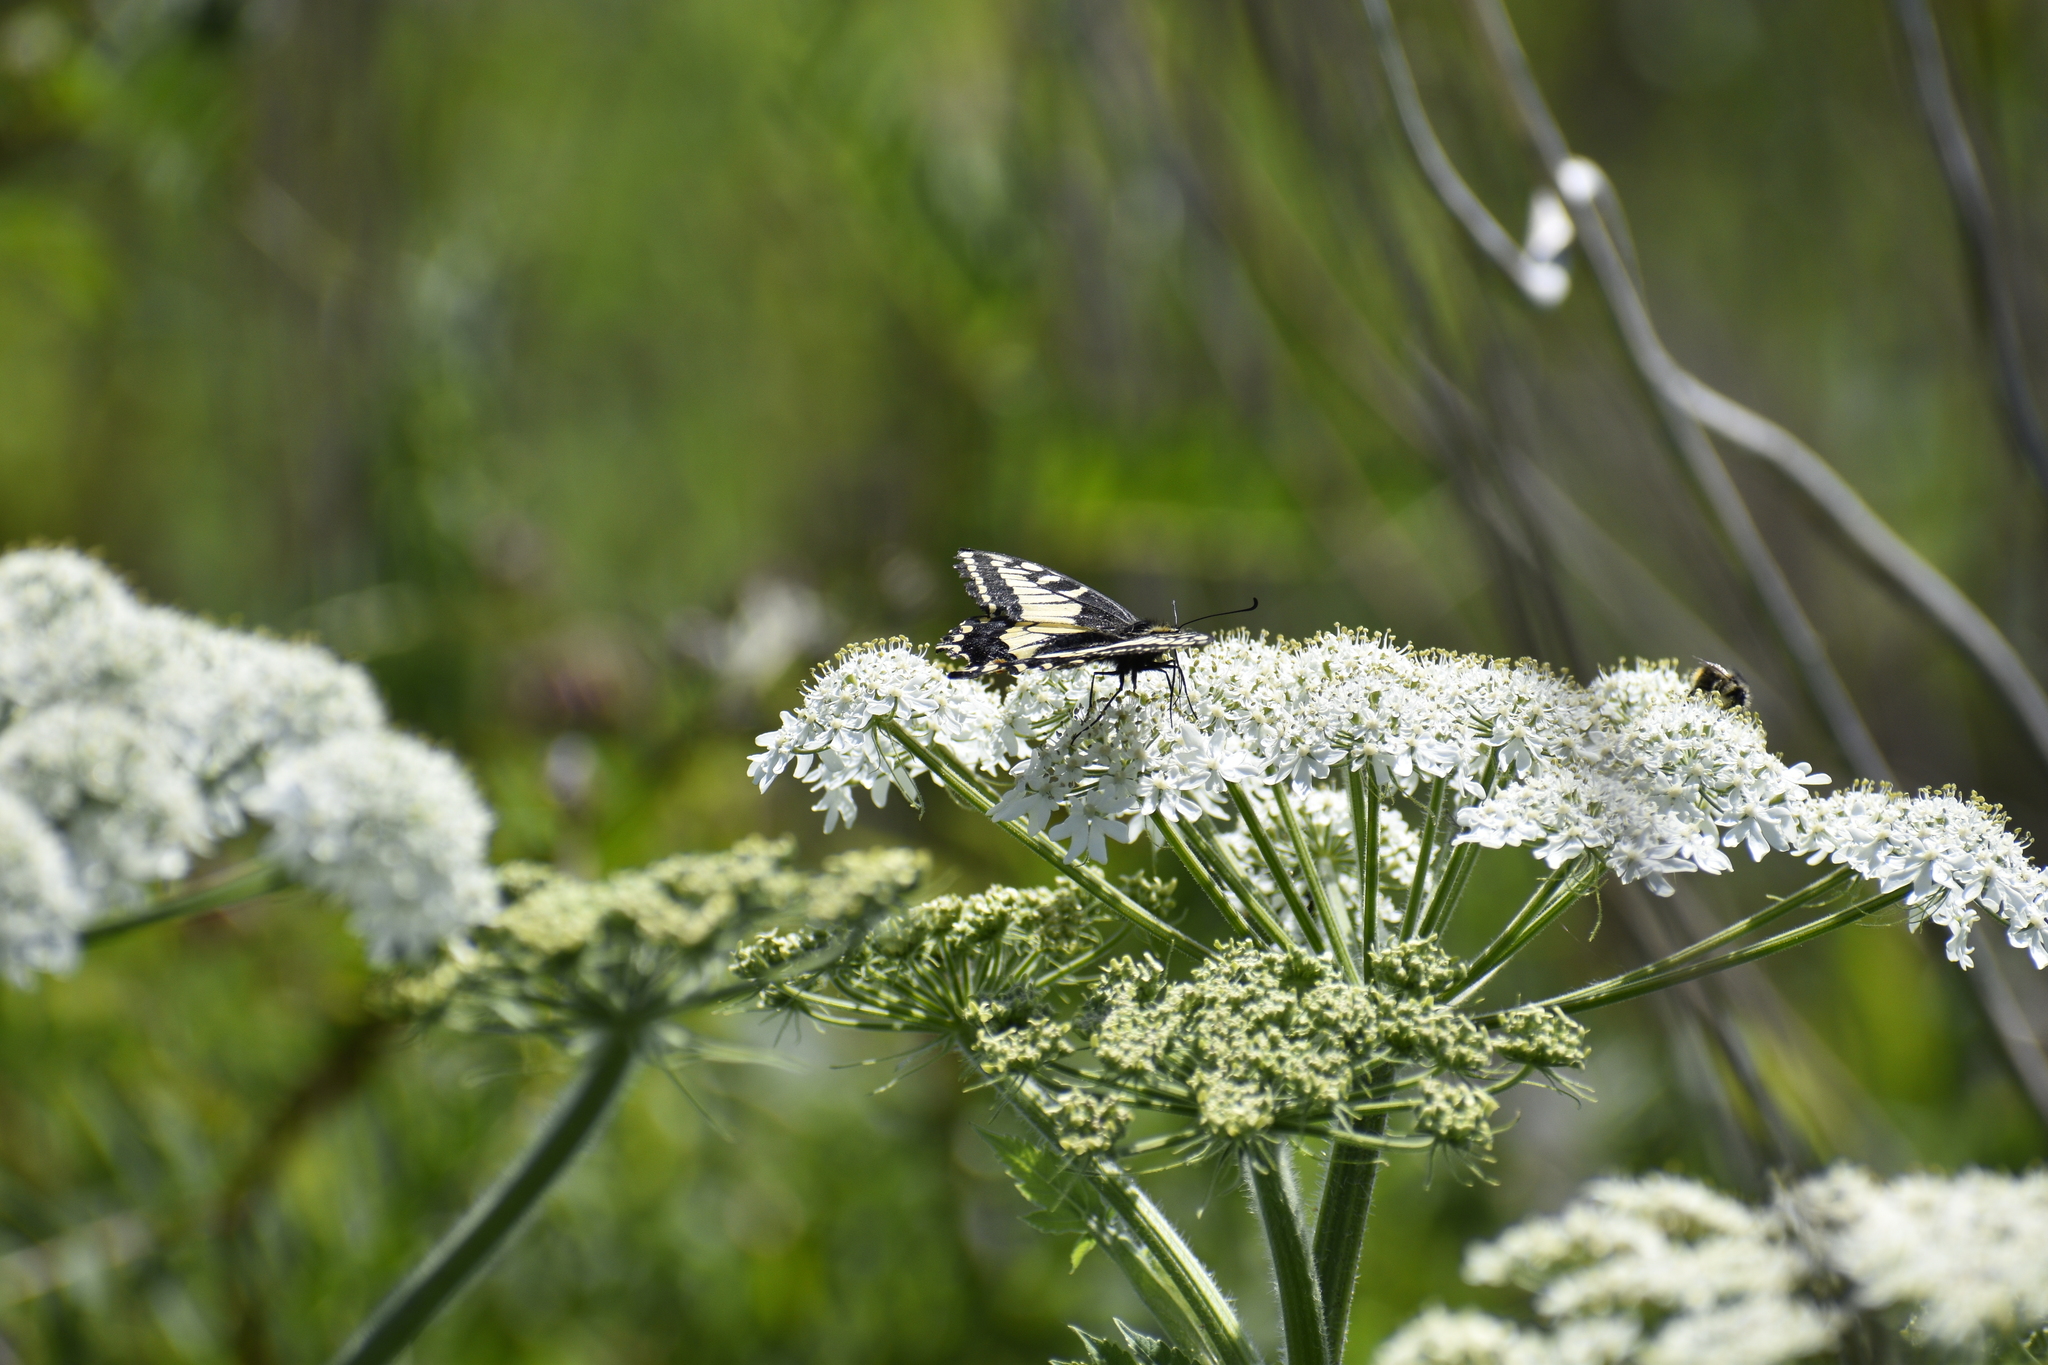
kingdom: Animalia
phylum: Arthropoda
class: Insecta
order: Lepidoptera
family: Papilionidae
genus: Papilio
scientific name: Papilio zelicaon
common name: Anise swallowtail
